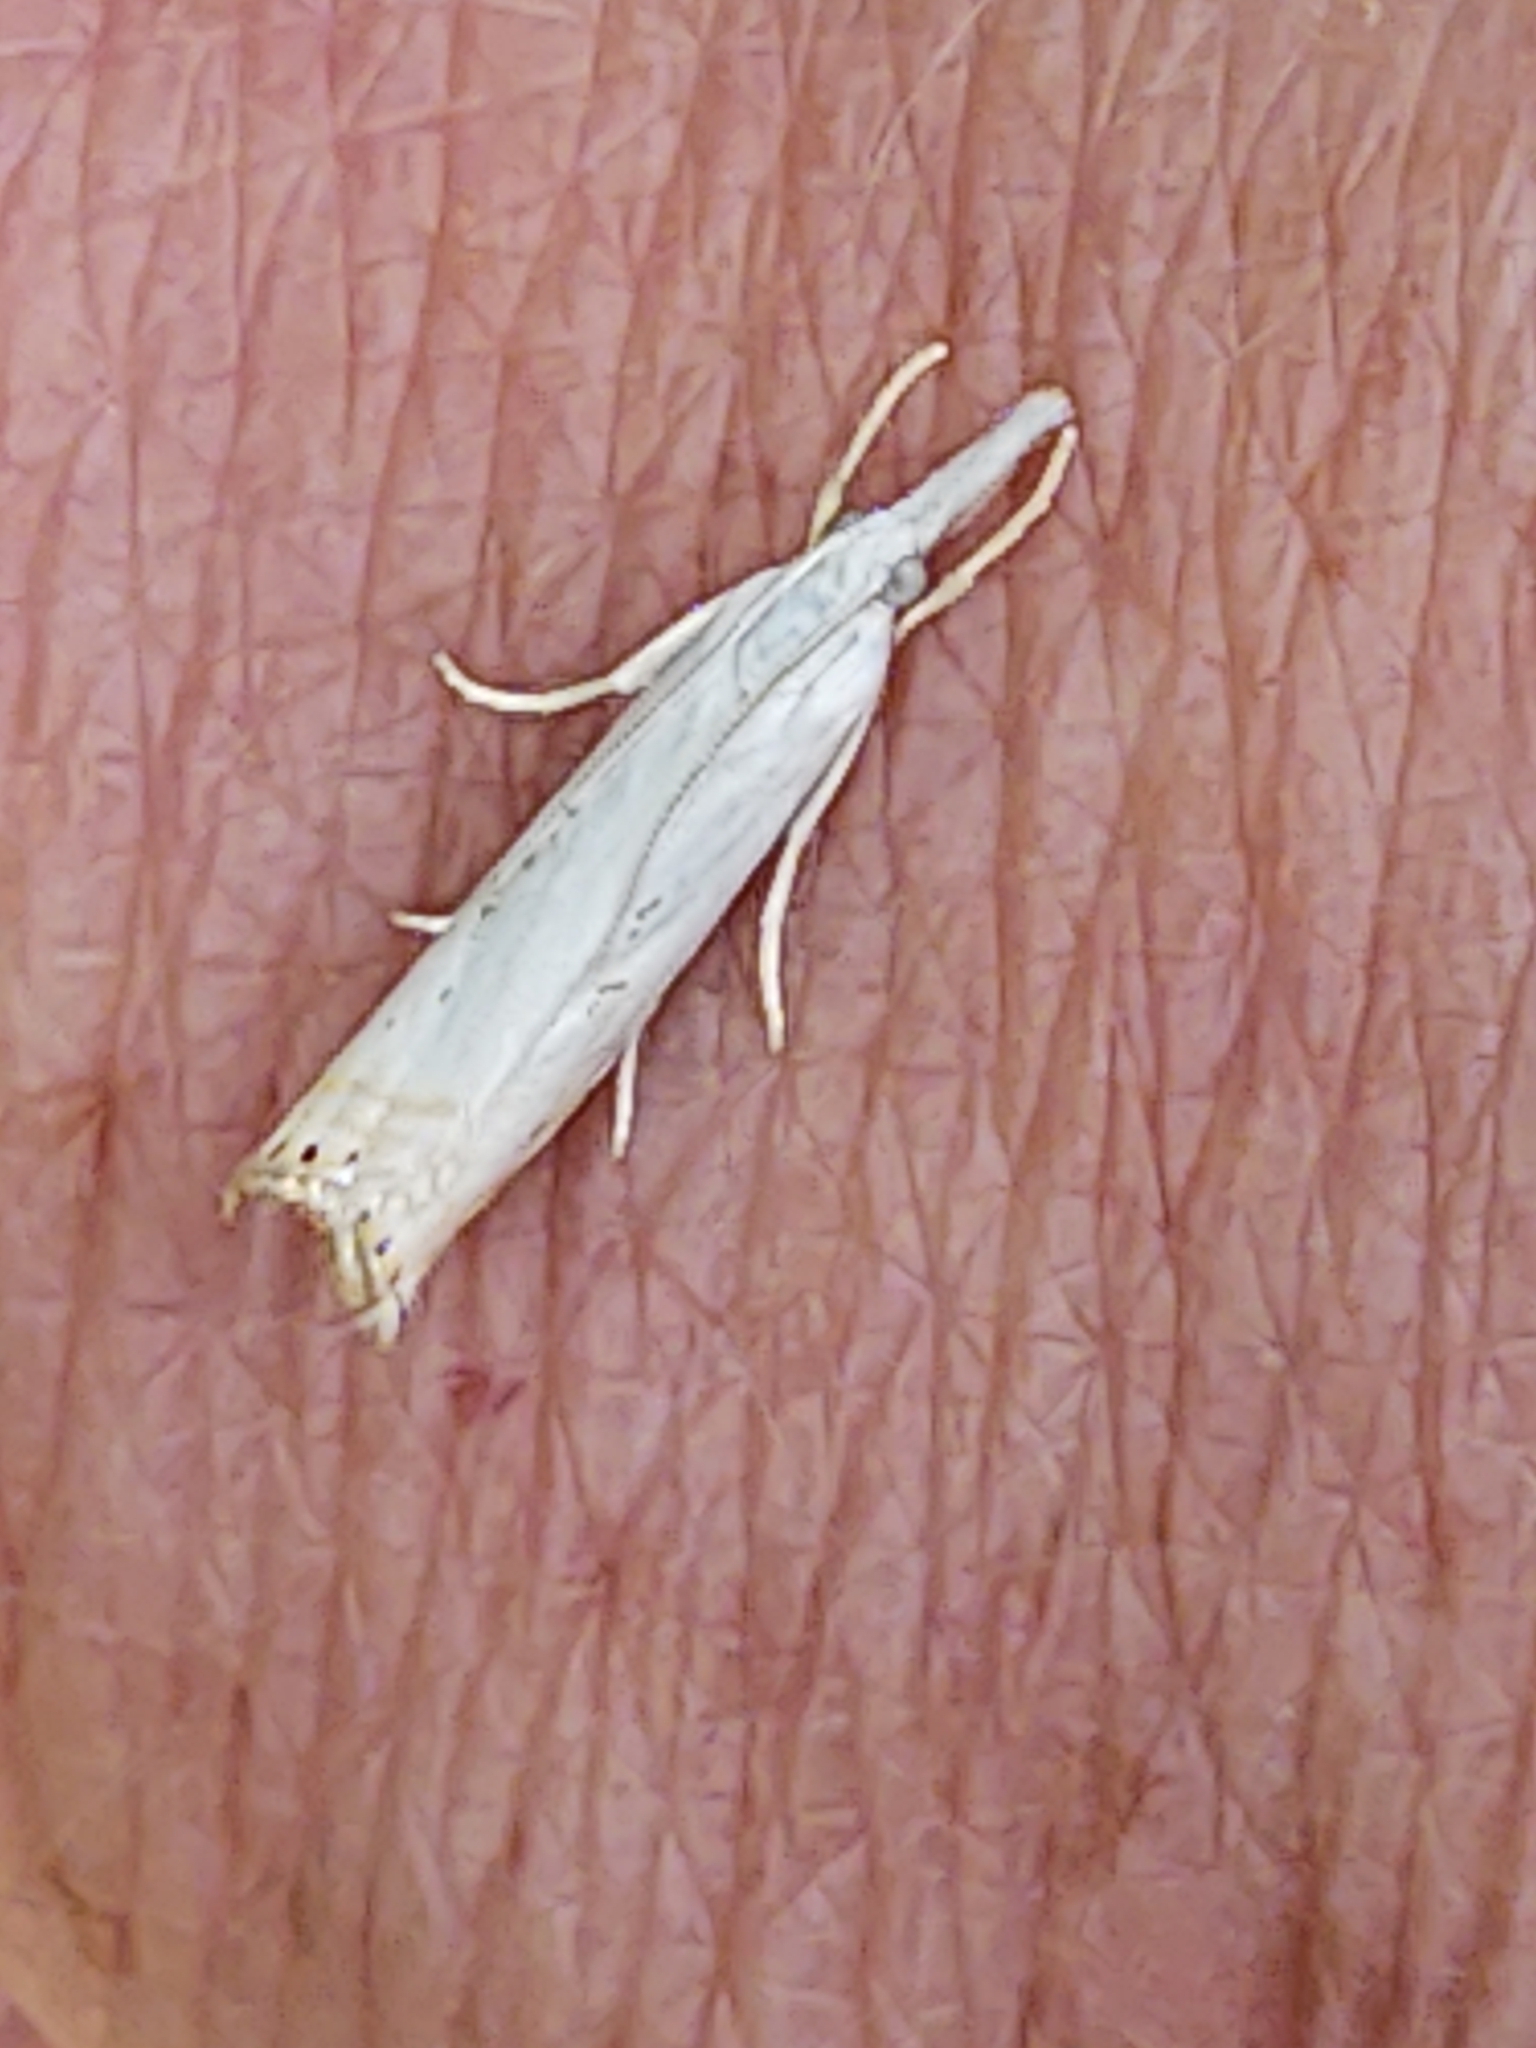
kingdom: Animalia
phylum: Arthropoda
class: Insecta
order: Lepidoptera
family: Crambidae
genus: Crambus
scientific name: Crambus albellus
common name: Small white grass-veneer
